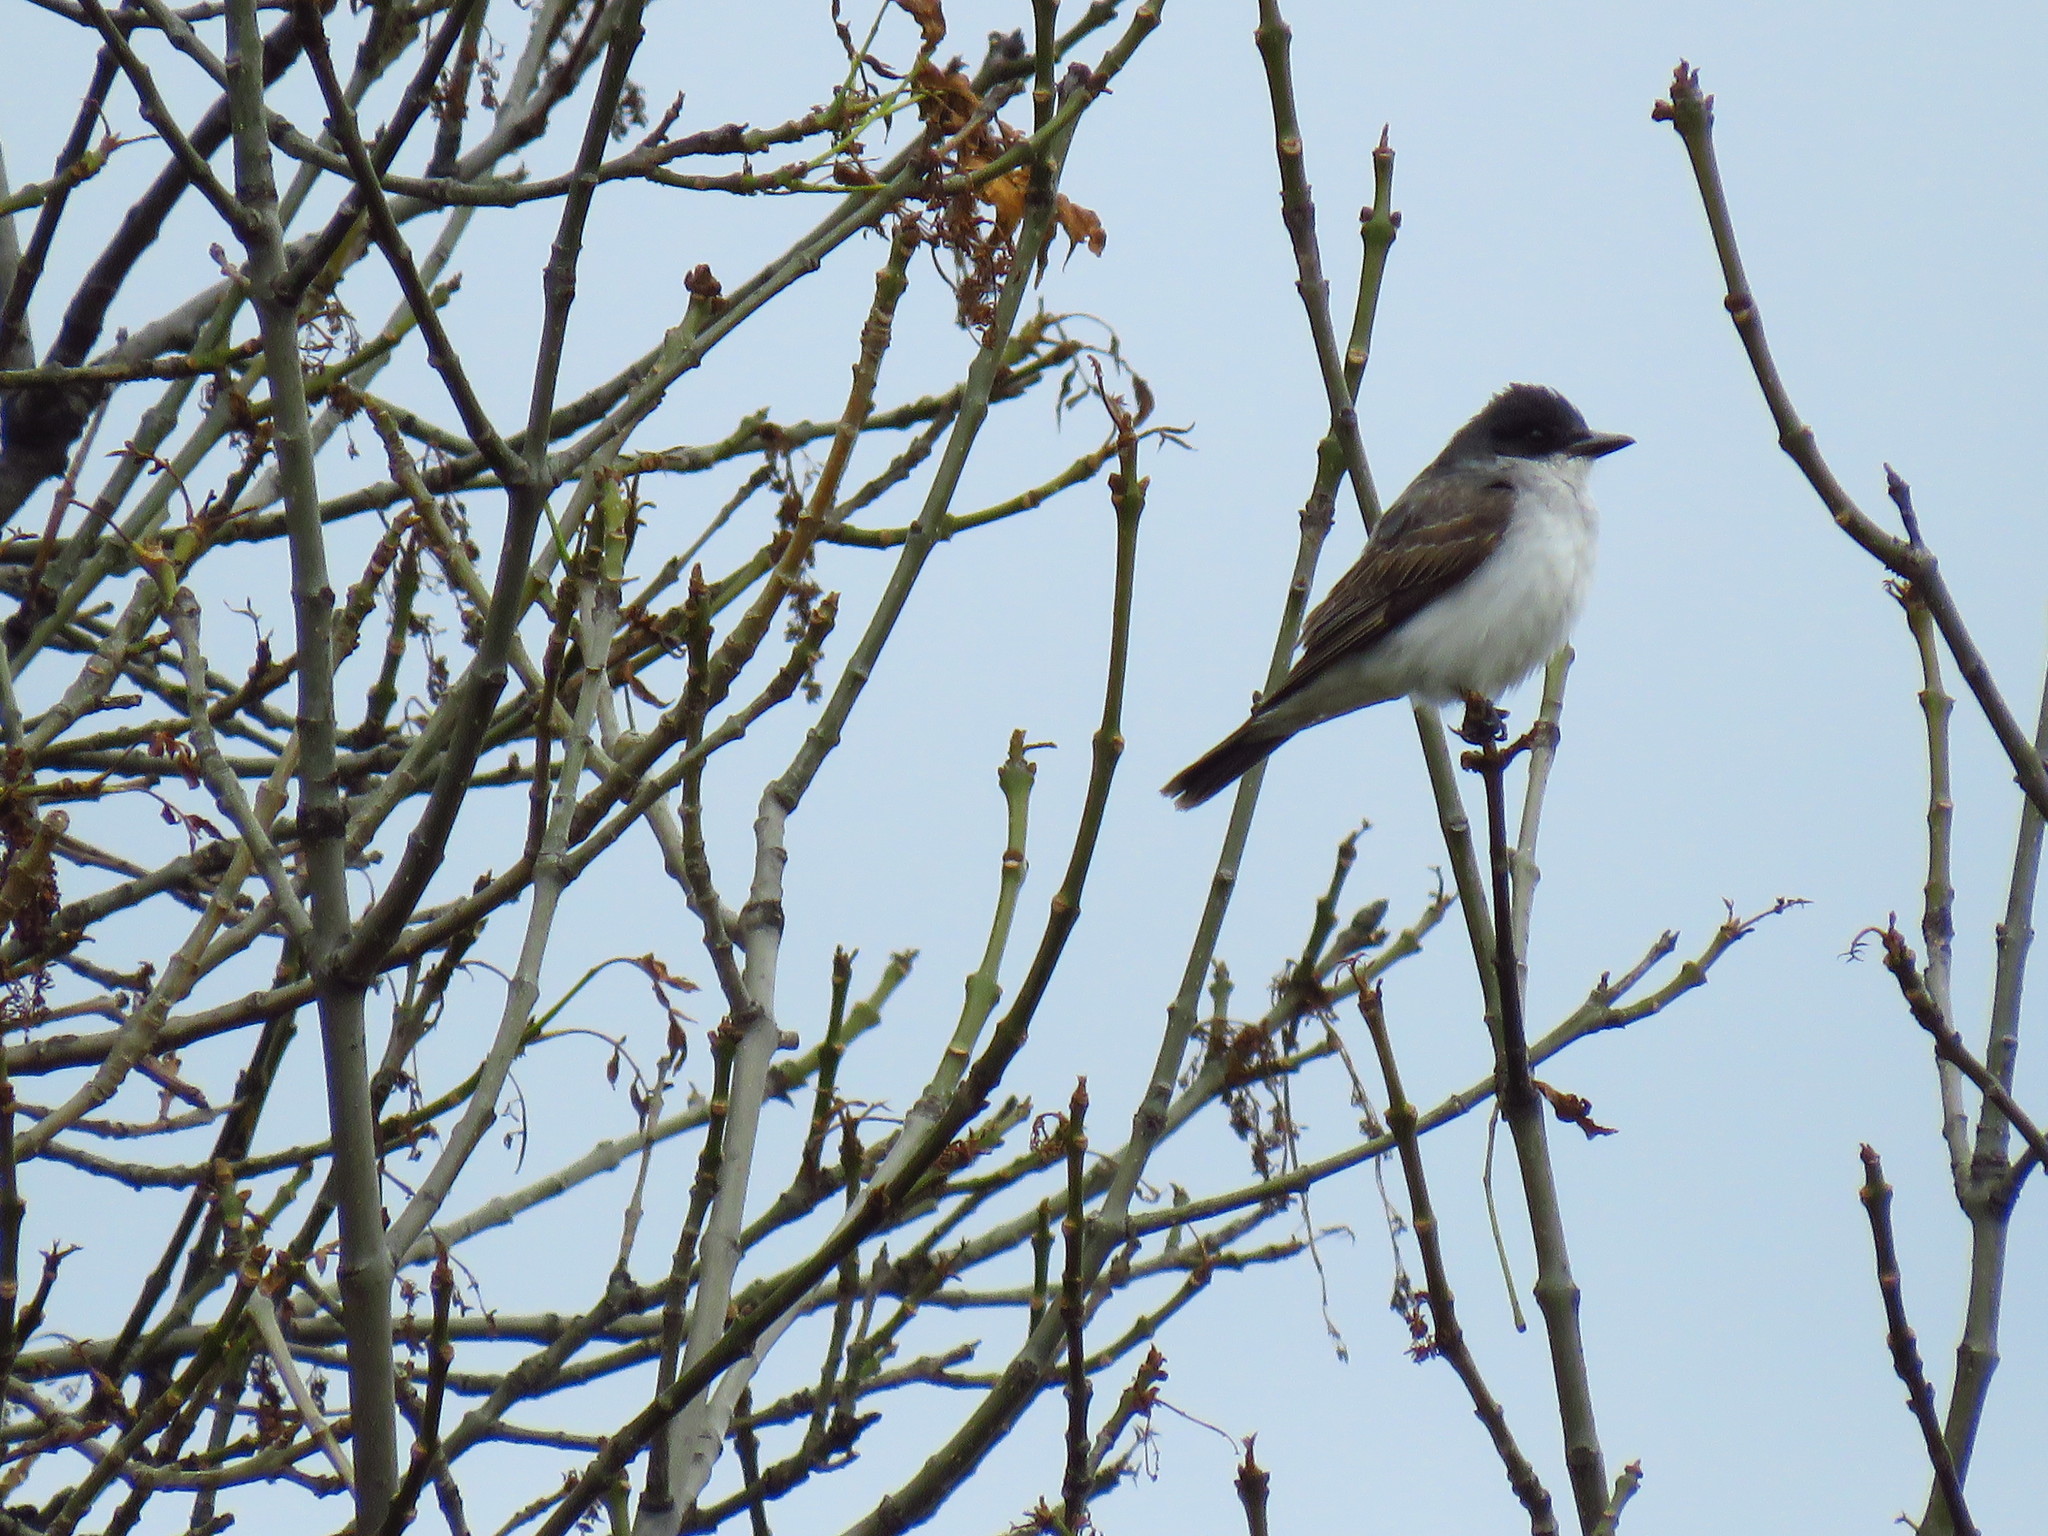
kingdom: Animalia
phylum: Chordata
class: Aves
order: Passeriformes
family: Tyrannidae
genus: Tyrannus
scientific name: Tyrannus tyrannus
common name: Eastern kingbird
